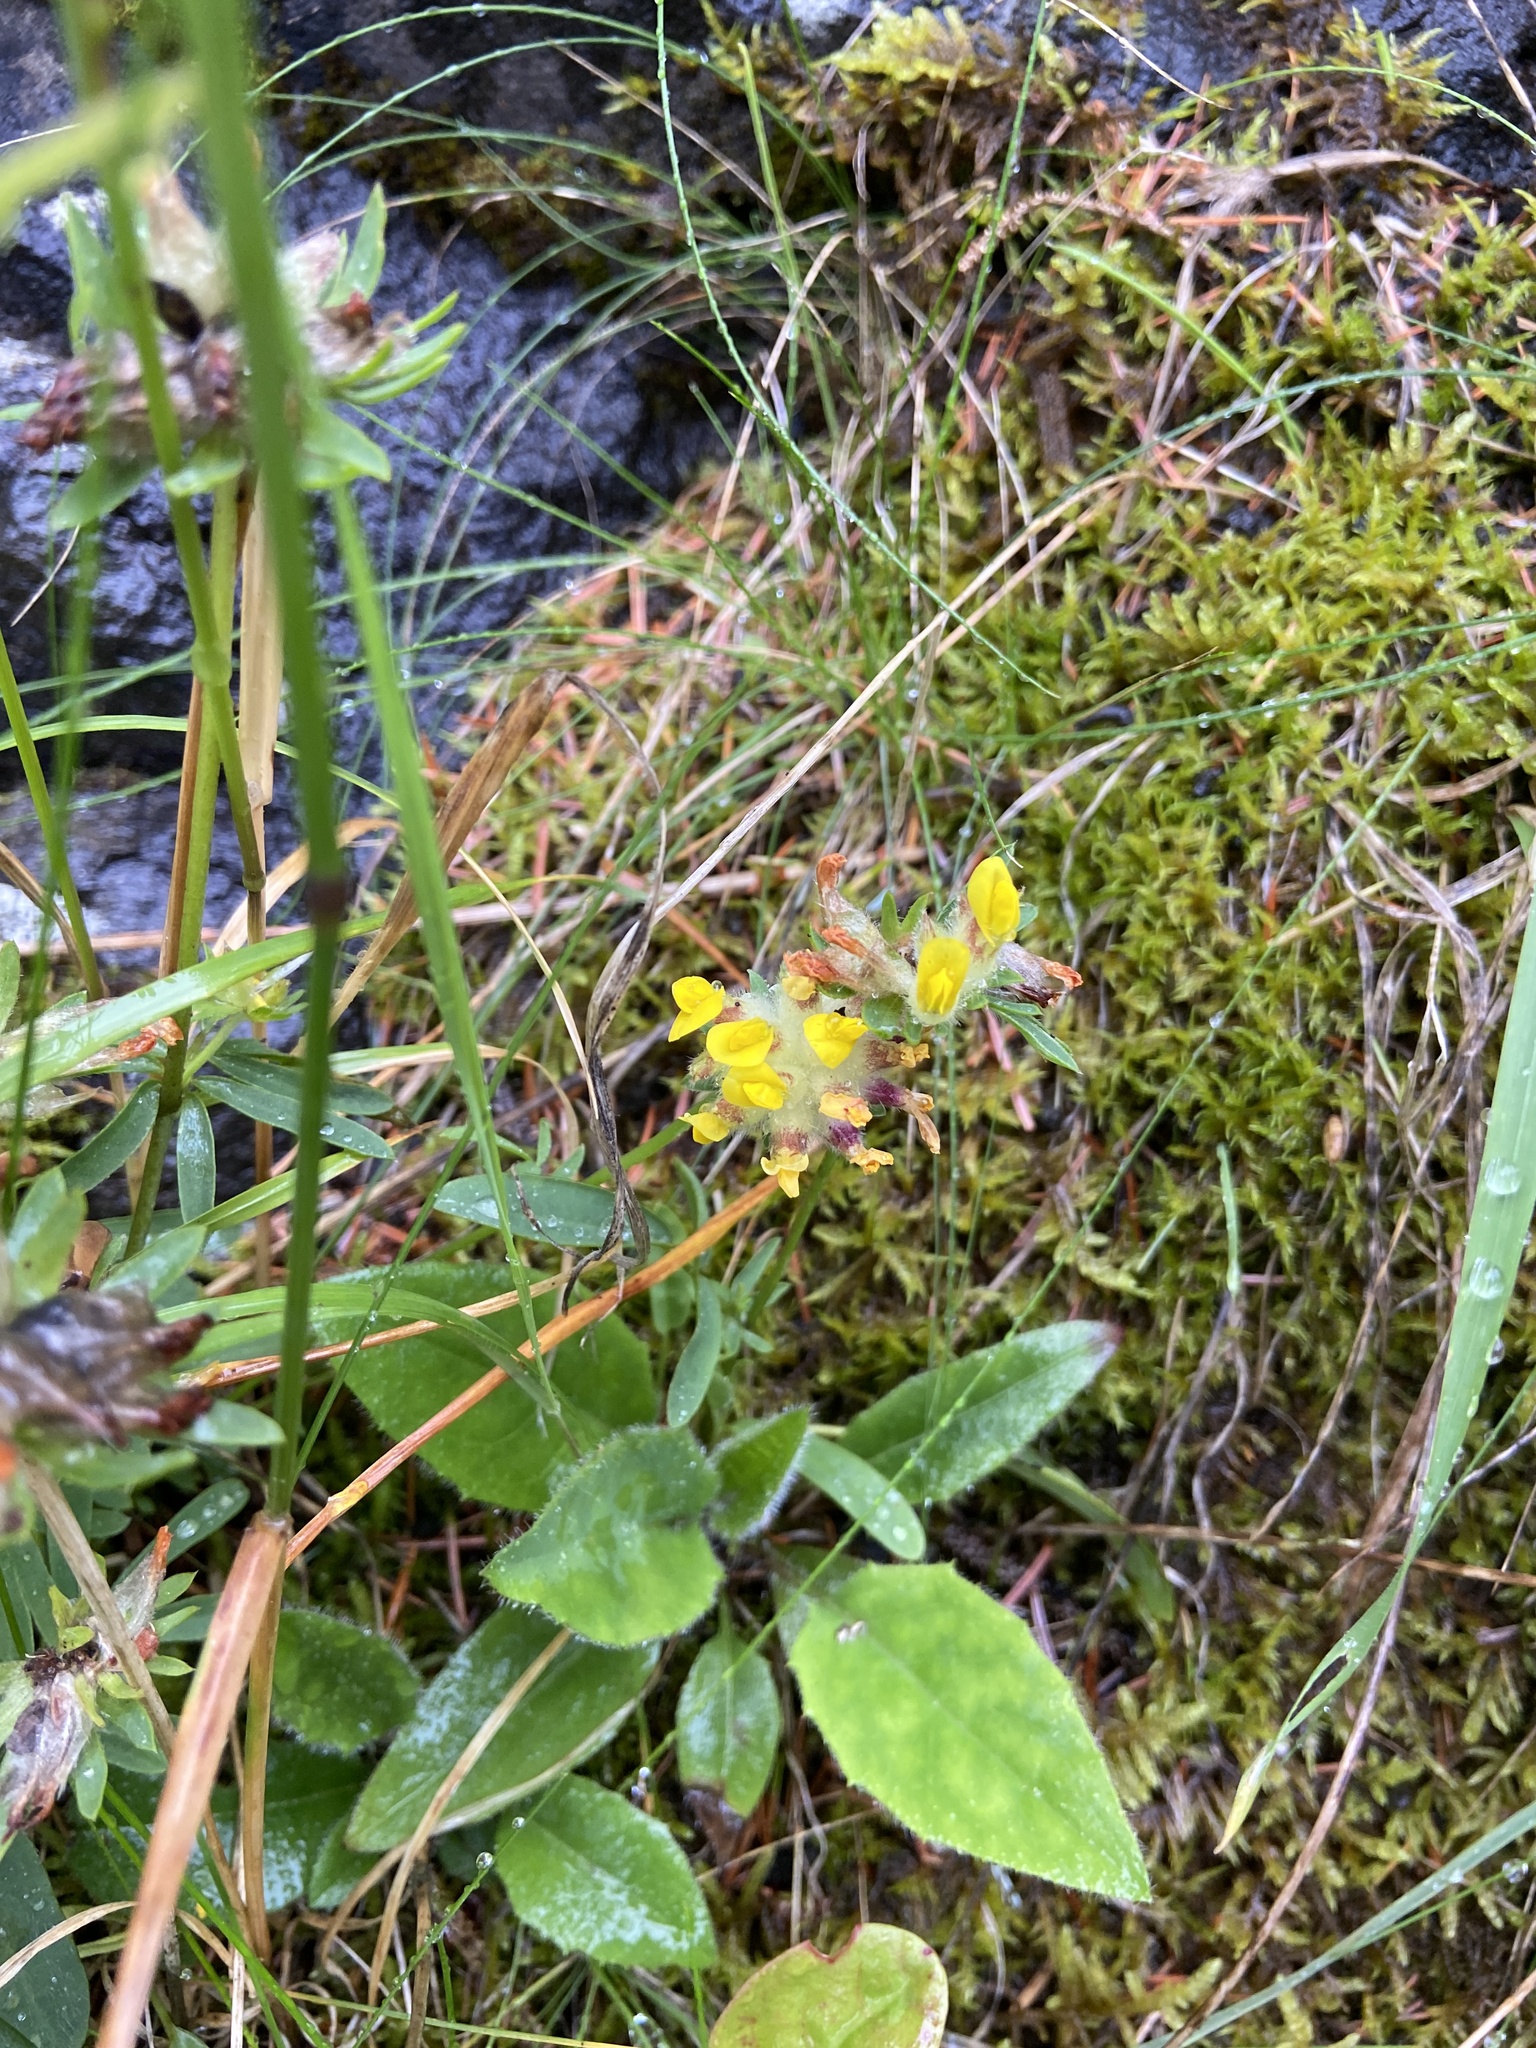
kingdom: Plantae
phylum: Tracheophyta
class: Magnoliopsida
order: Fabales
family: Fabaceae
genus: Anthyllis
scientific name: Anthyllis vulneraria
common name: Kidney vetch
